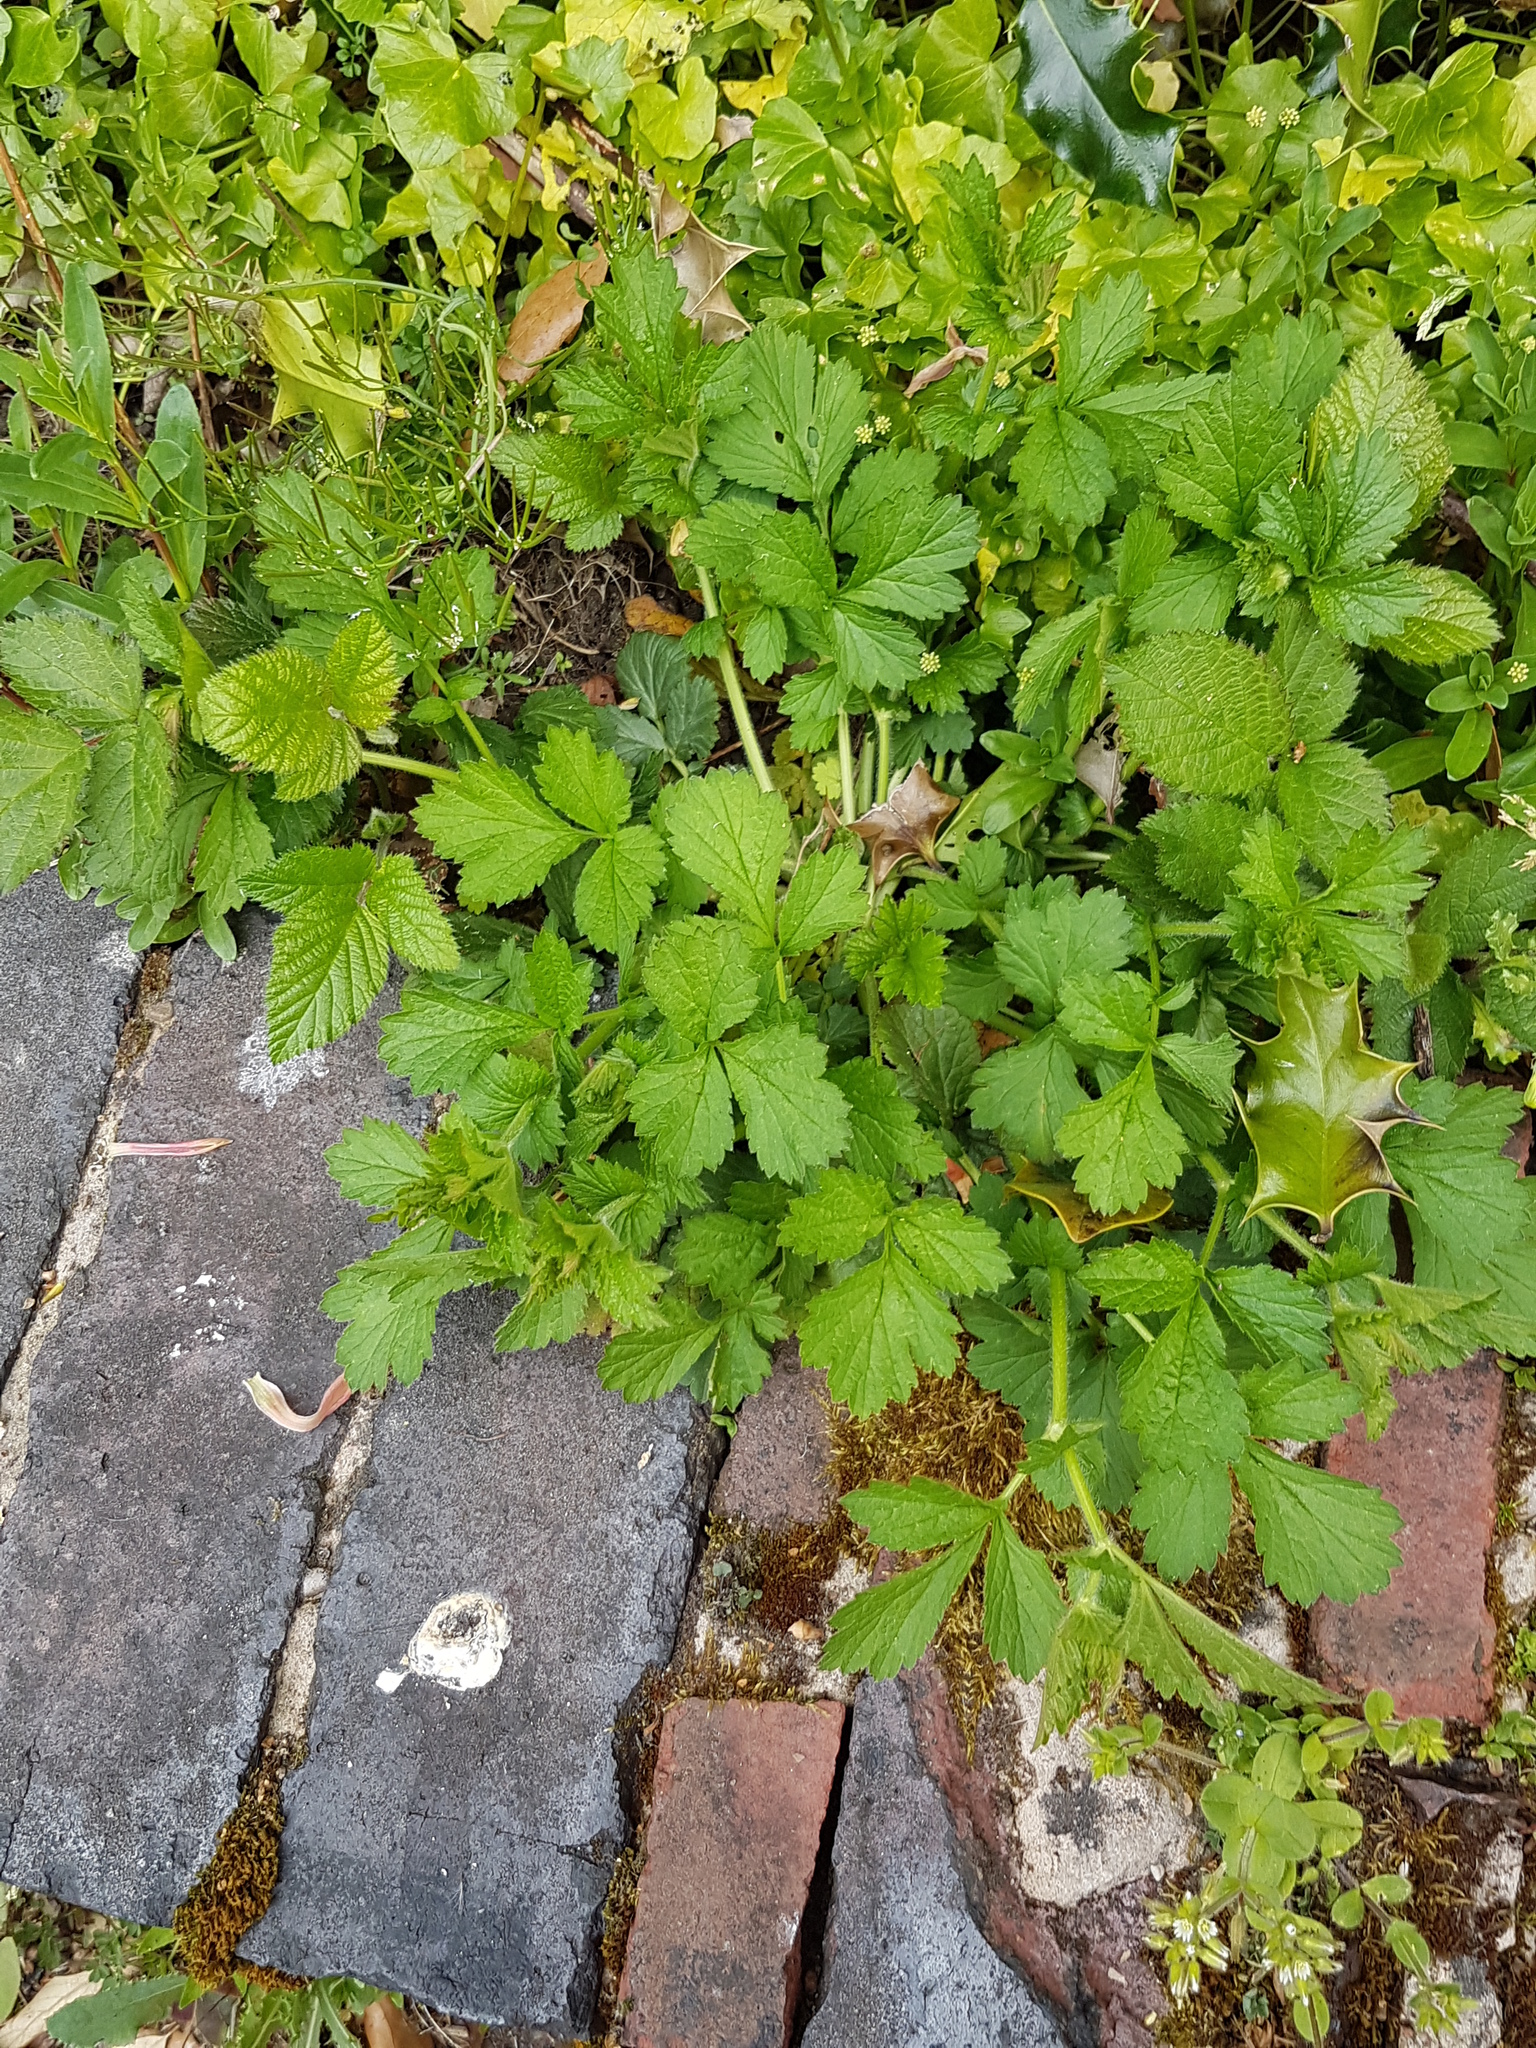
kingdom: Plantae
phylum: Tracheophyta
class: Magnoliopsida
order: Rosales
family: Rosaceae
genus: Geum
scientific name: Geum urbanum
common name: Wood avens
